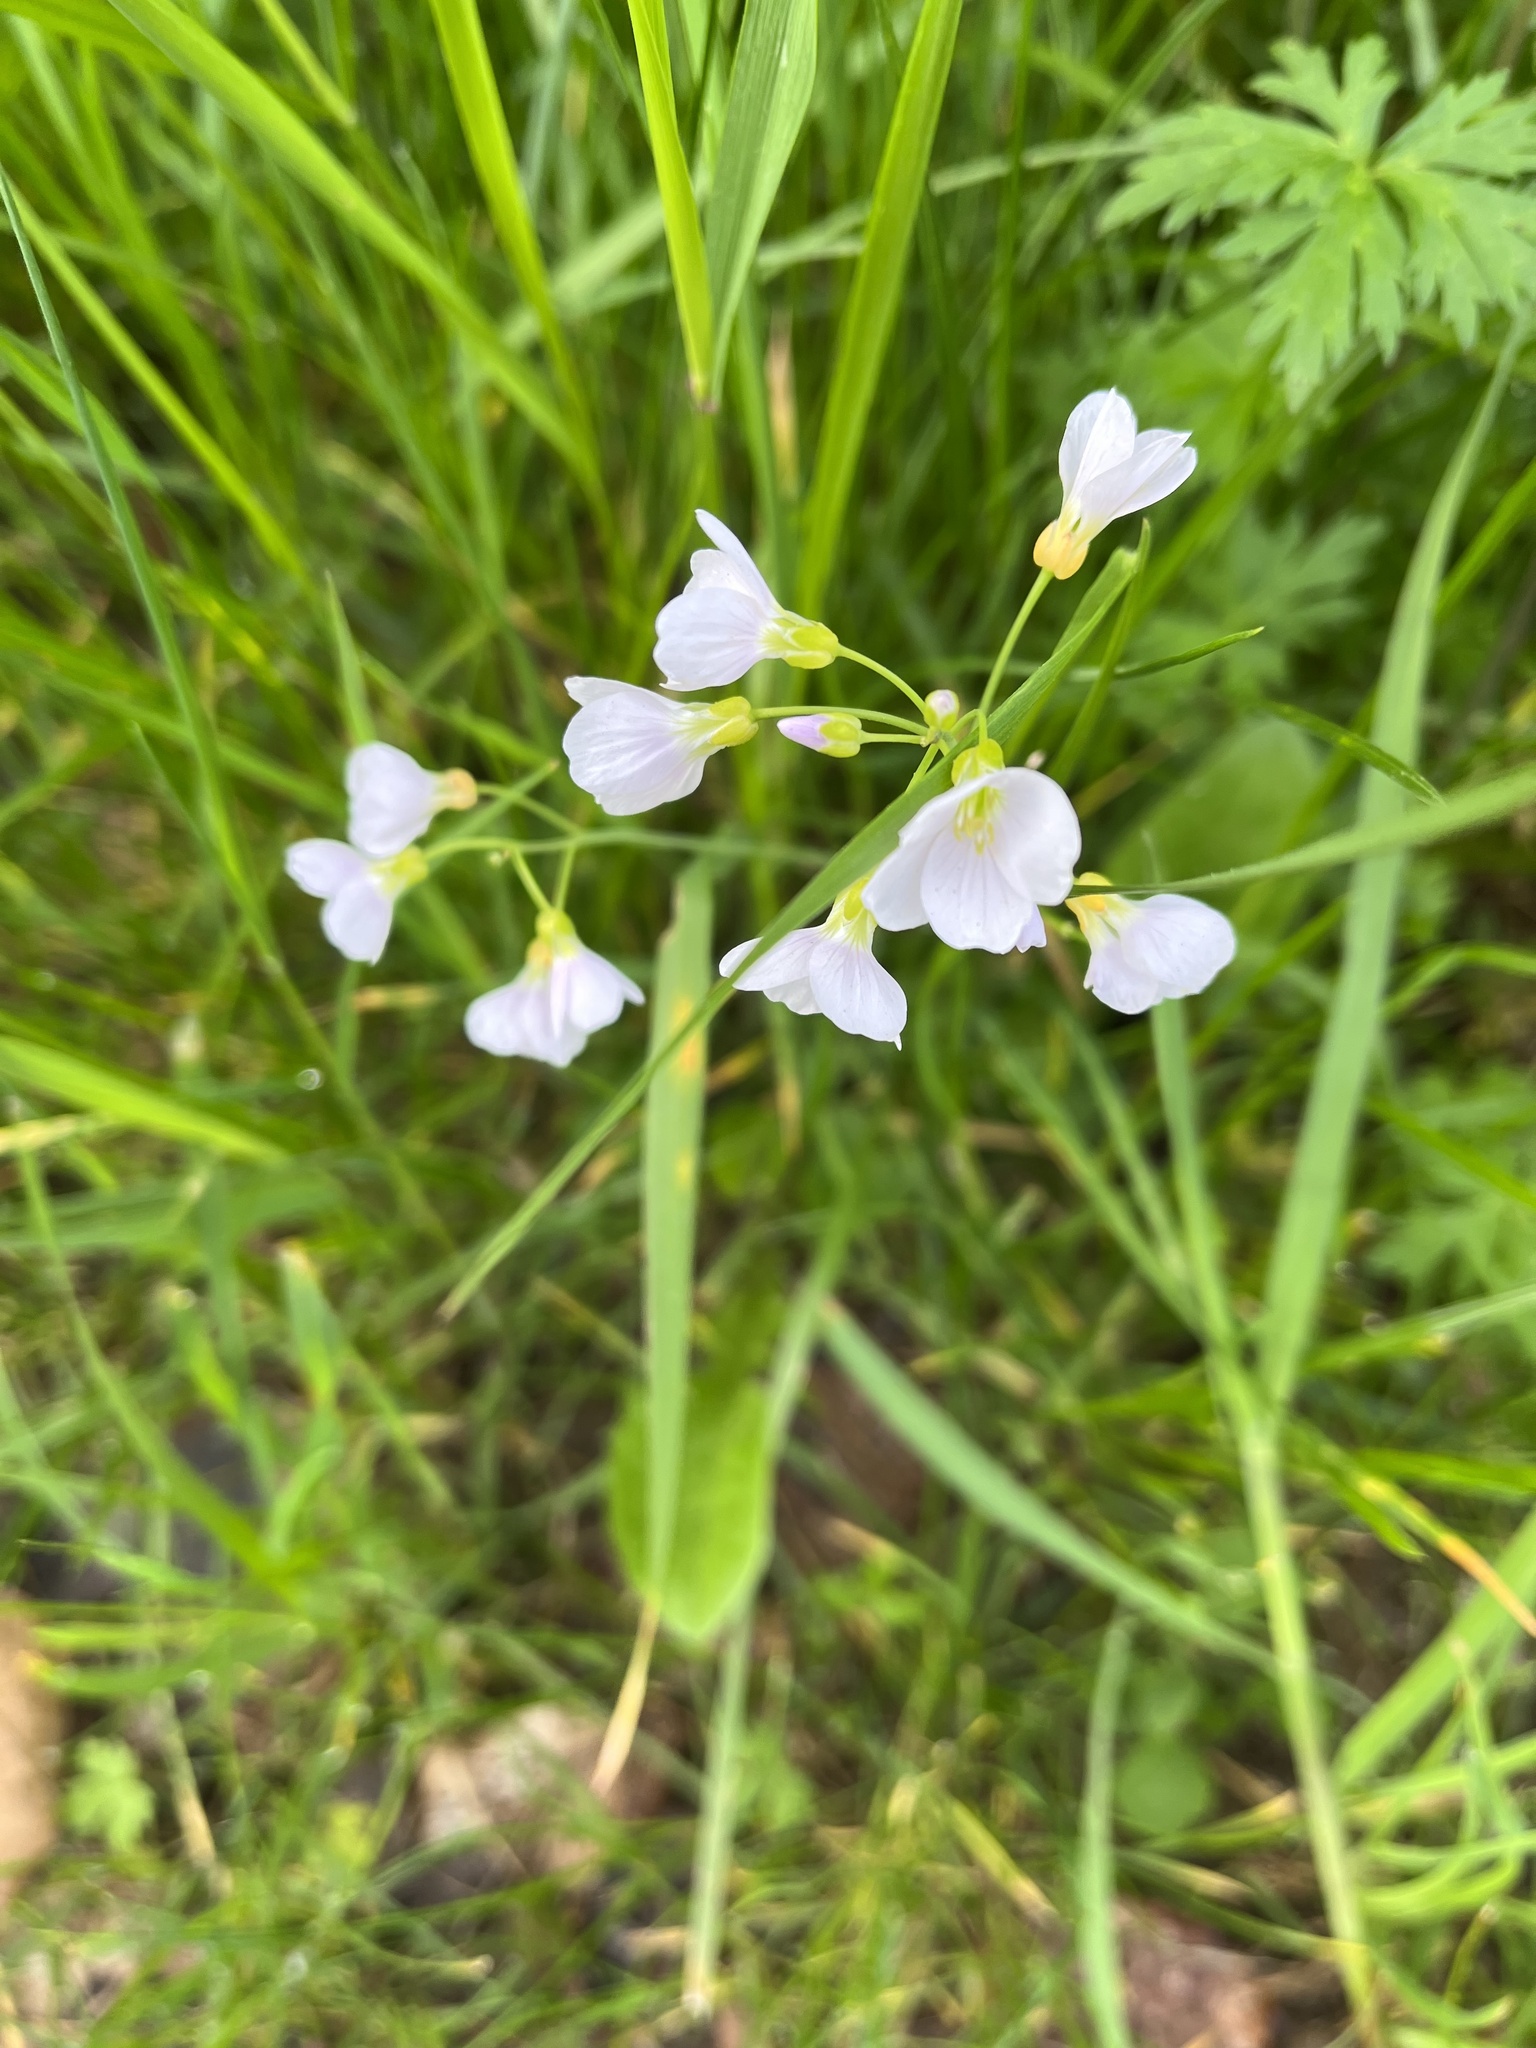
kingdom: Plantae
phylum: Tracheophyta
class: Magnoliopsida
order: Brassicales
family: Brassicaceae
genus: Cardamine
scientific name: Cardamine pratensis
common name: Cuckoo flower
